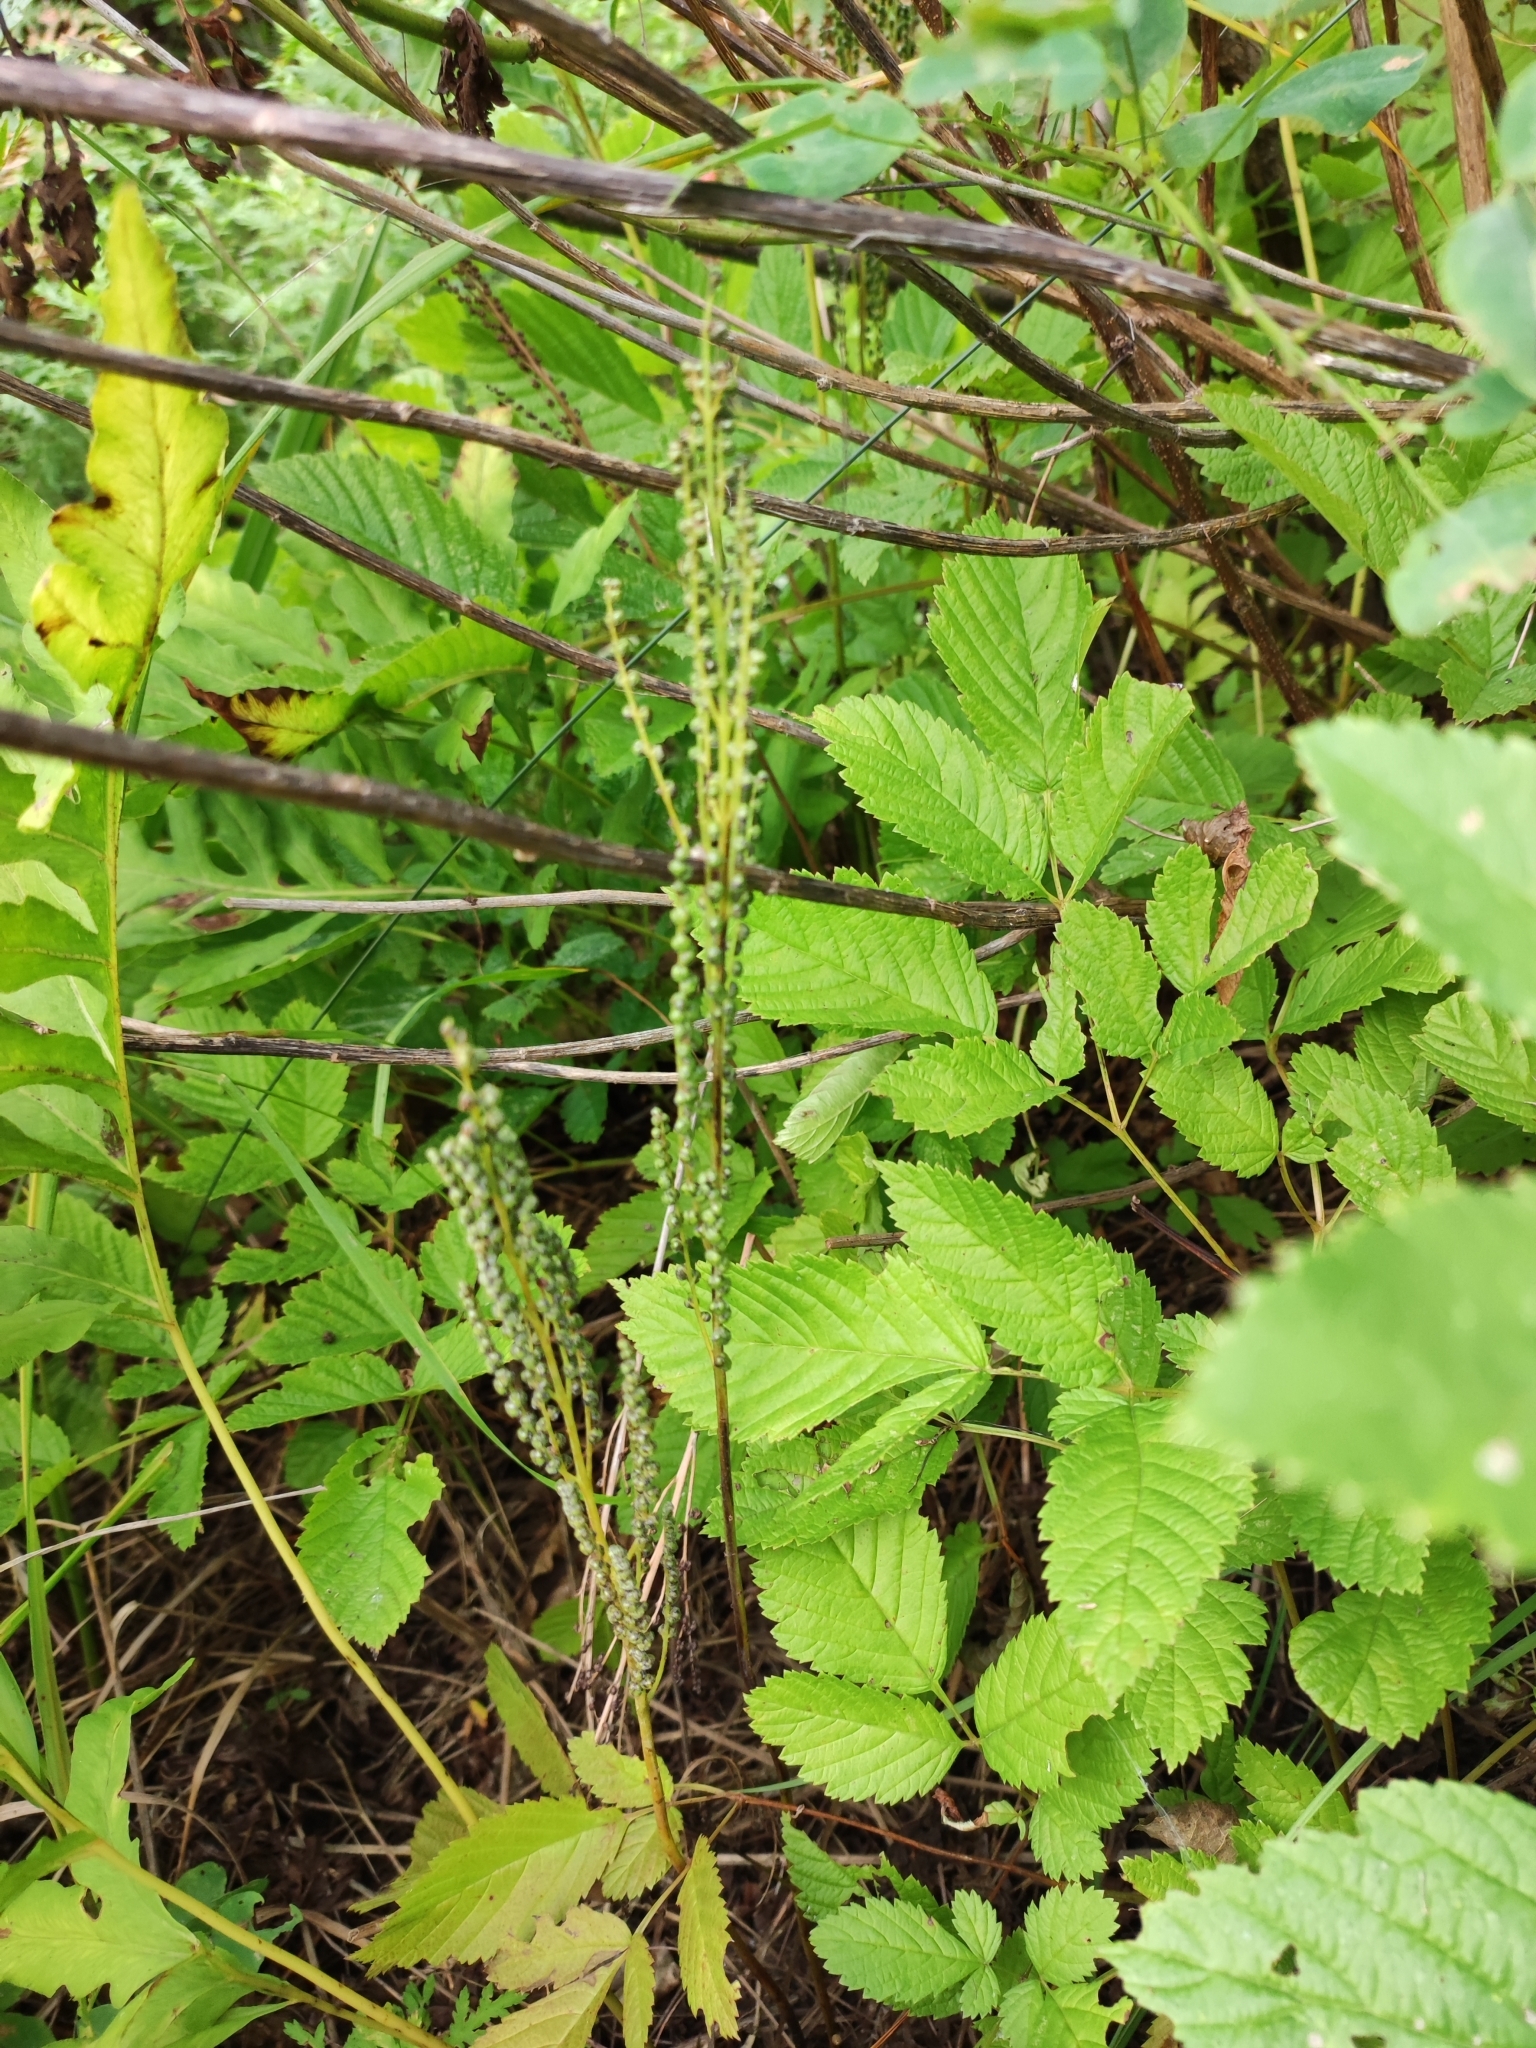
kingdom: Plantae
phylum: Tracheophyta
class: Polypodiopsida
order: Polypodiales
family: Onocleaceae
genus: Onoclea
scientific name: Onoclea sensibilis
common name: Sensitive fern
